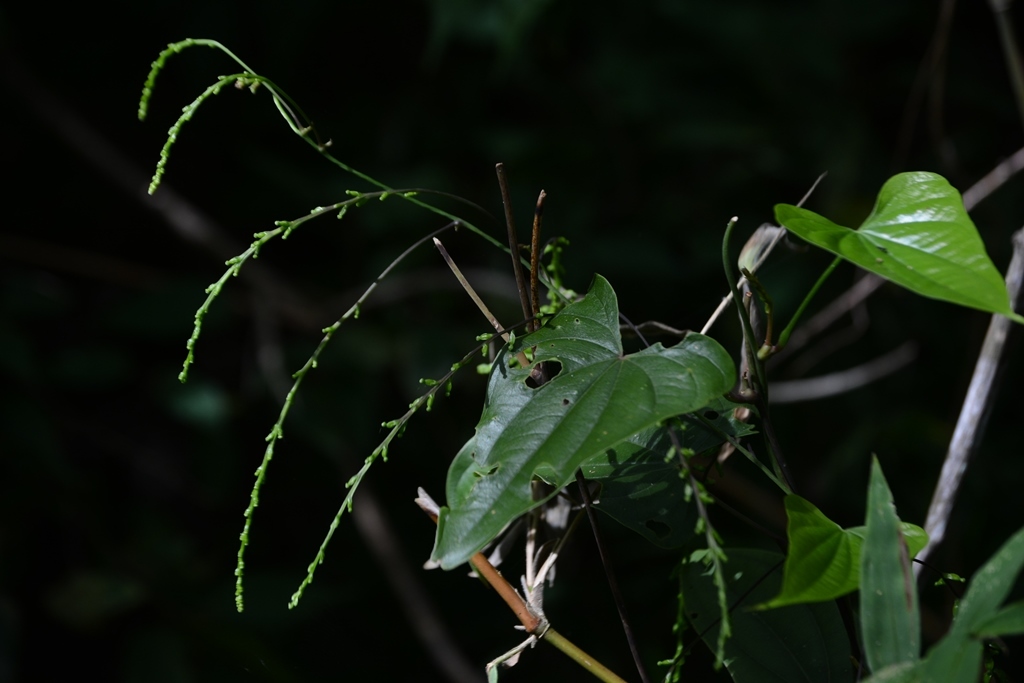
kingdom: Plantae
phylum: Tracheophyta
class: Liliopsida
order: Dioscoreales
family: Dioscoreaceae
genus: Dioscorea
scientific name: Dioscorea spiculiflora
